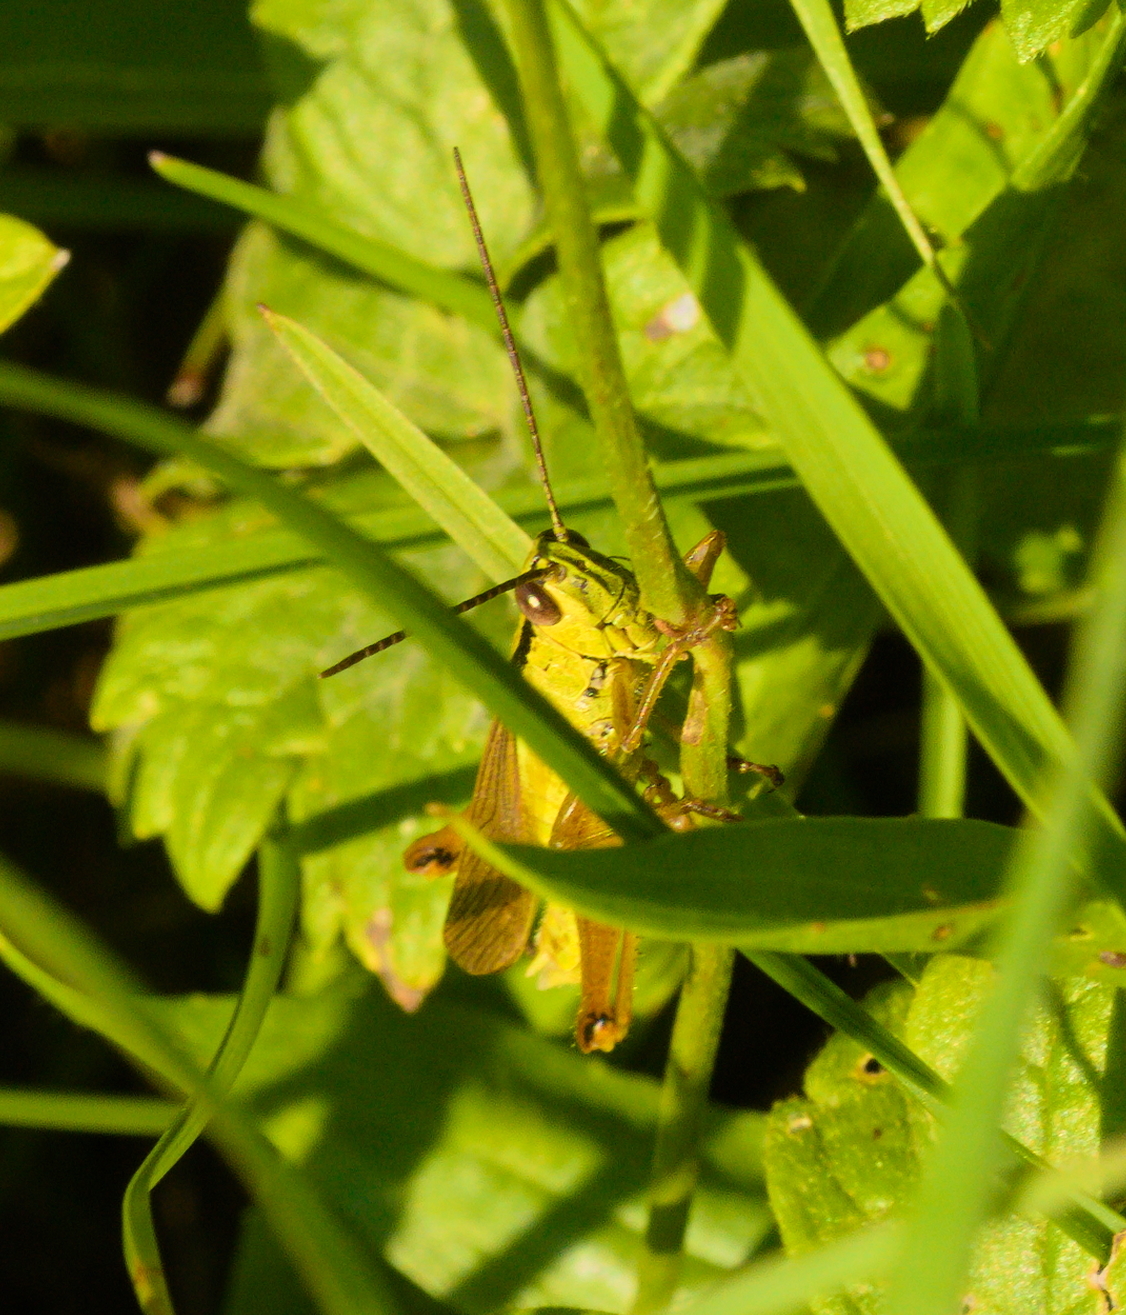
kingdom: Animalia
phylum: Arthropoda
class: Insecta
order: Orthoptera
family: Acrididae
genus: Mecostethus
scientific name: Mecostethus parapleurus
